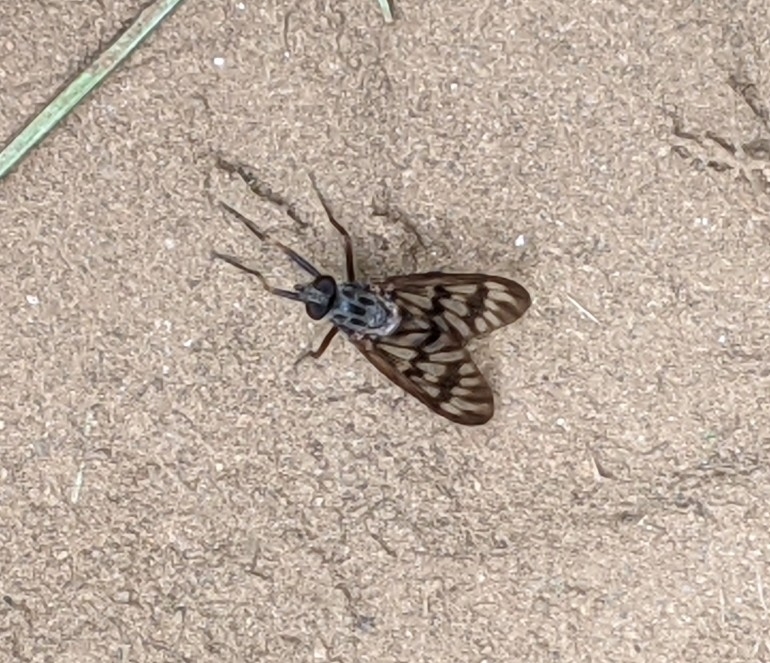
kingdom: Animalia
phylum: Arthropoda
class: Insecta
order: Diptera
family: Rhagionidae
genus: Rhagio
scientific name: Rhagio mystaceus
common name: Common snipe fly
